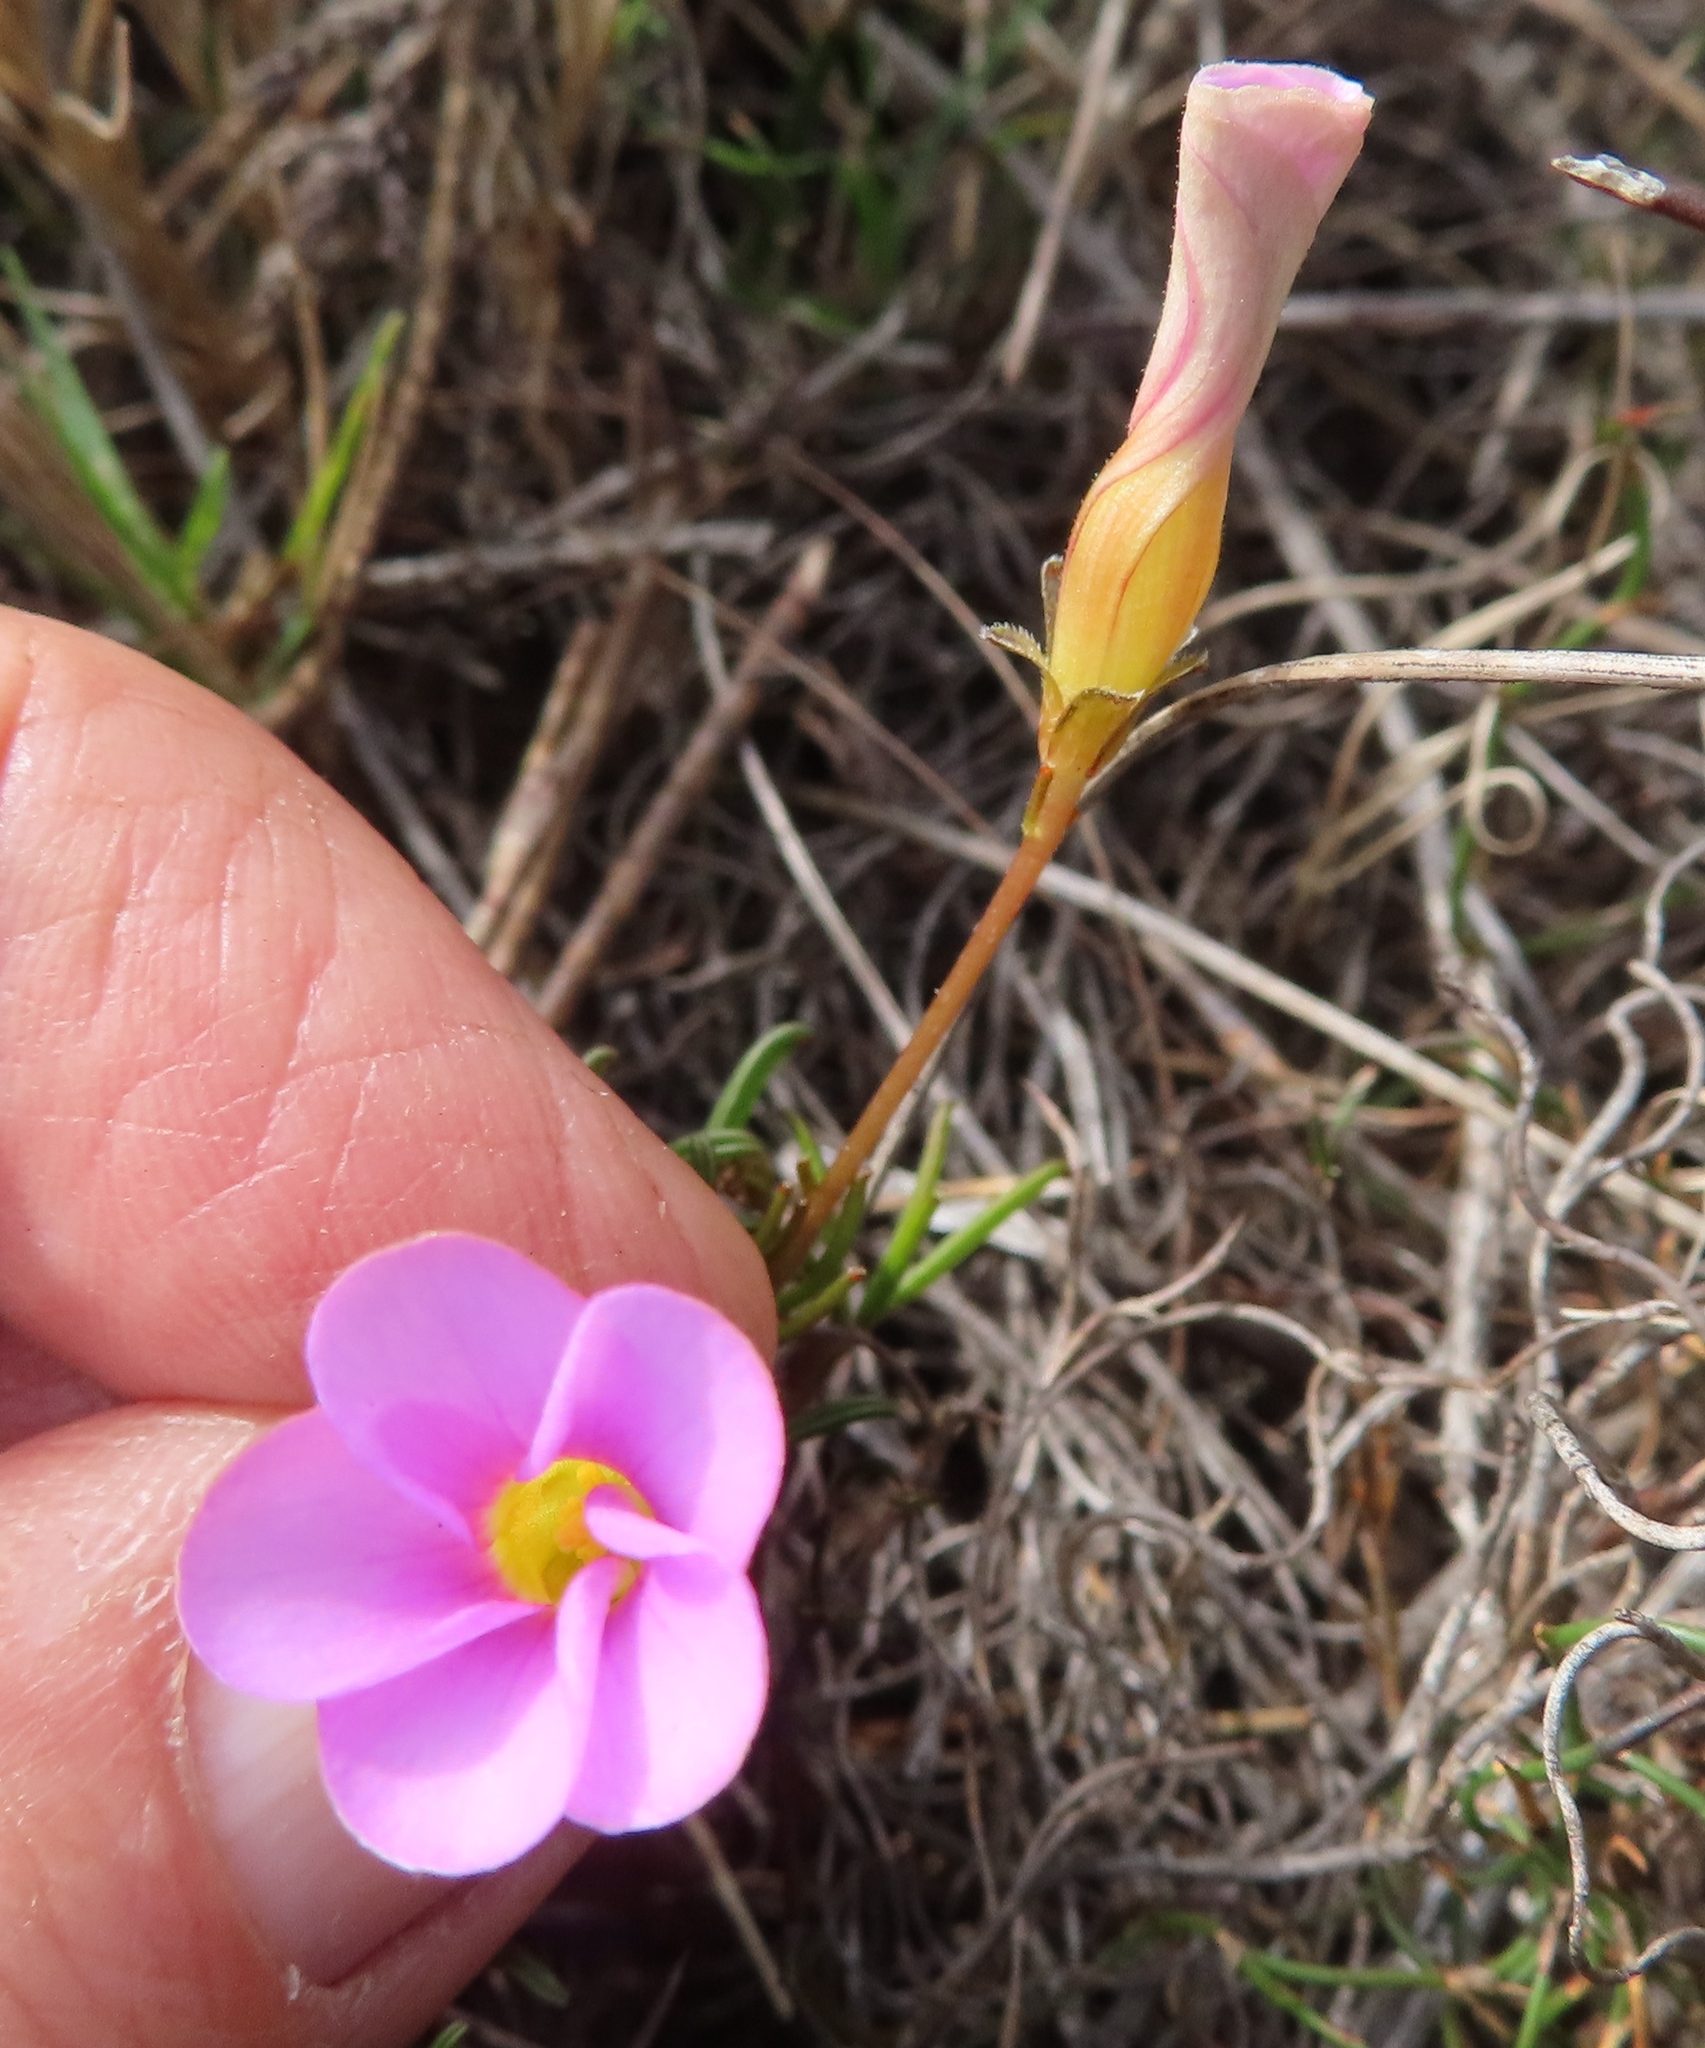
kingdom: Plantae
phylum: Tracheophyta
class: Magnoliopsida
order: Oxalidales
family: Oxalidaceae
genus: Oxalis
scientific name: Oxalis polyphylla
